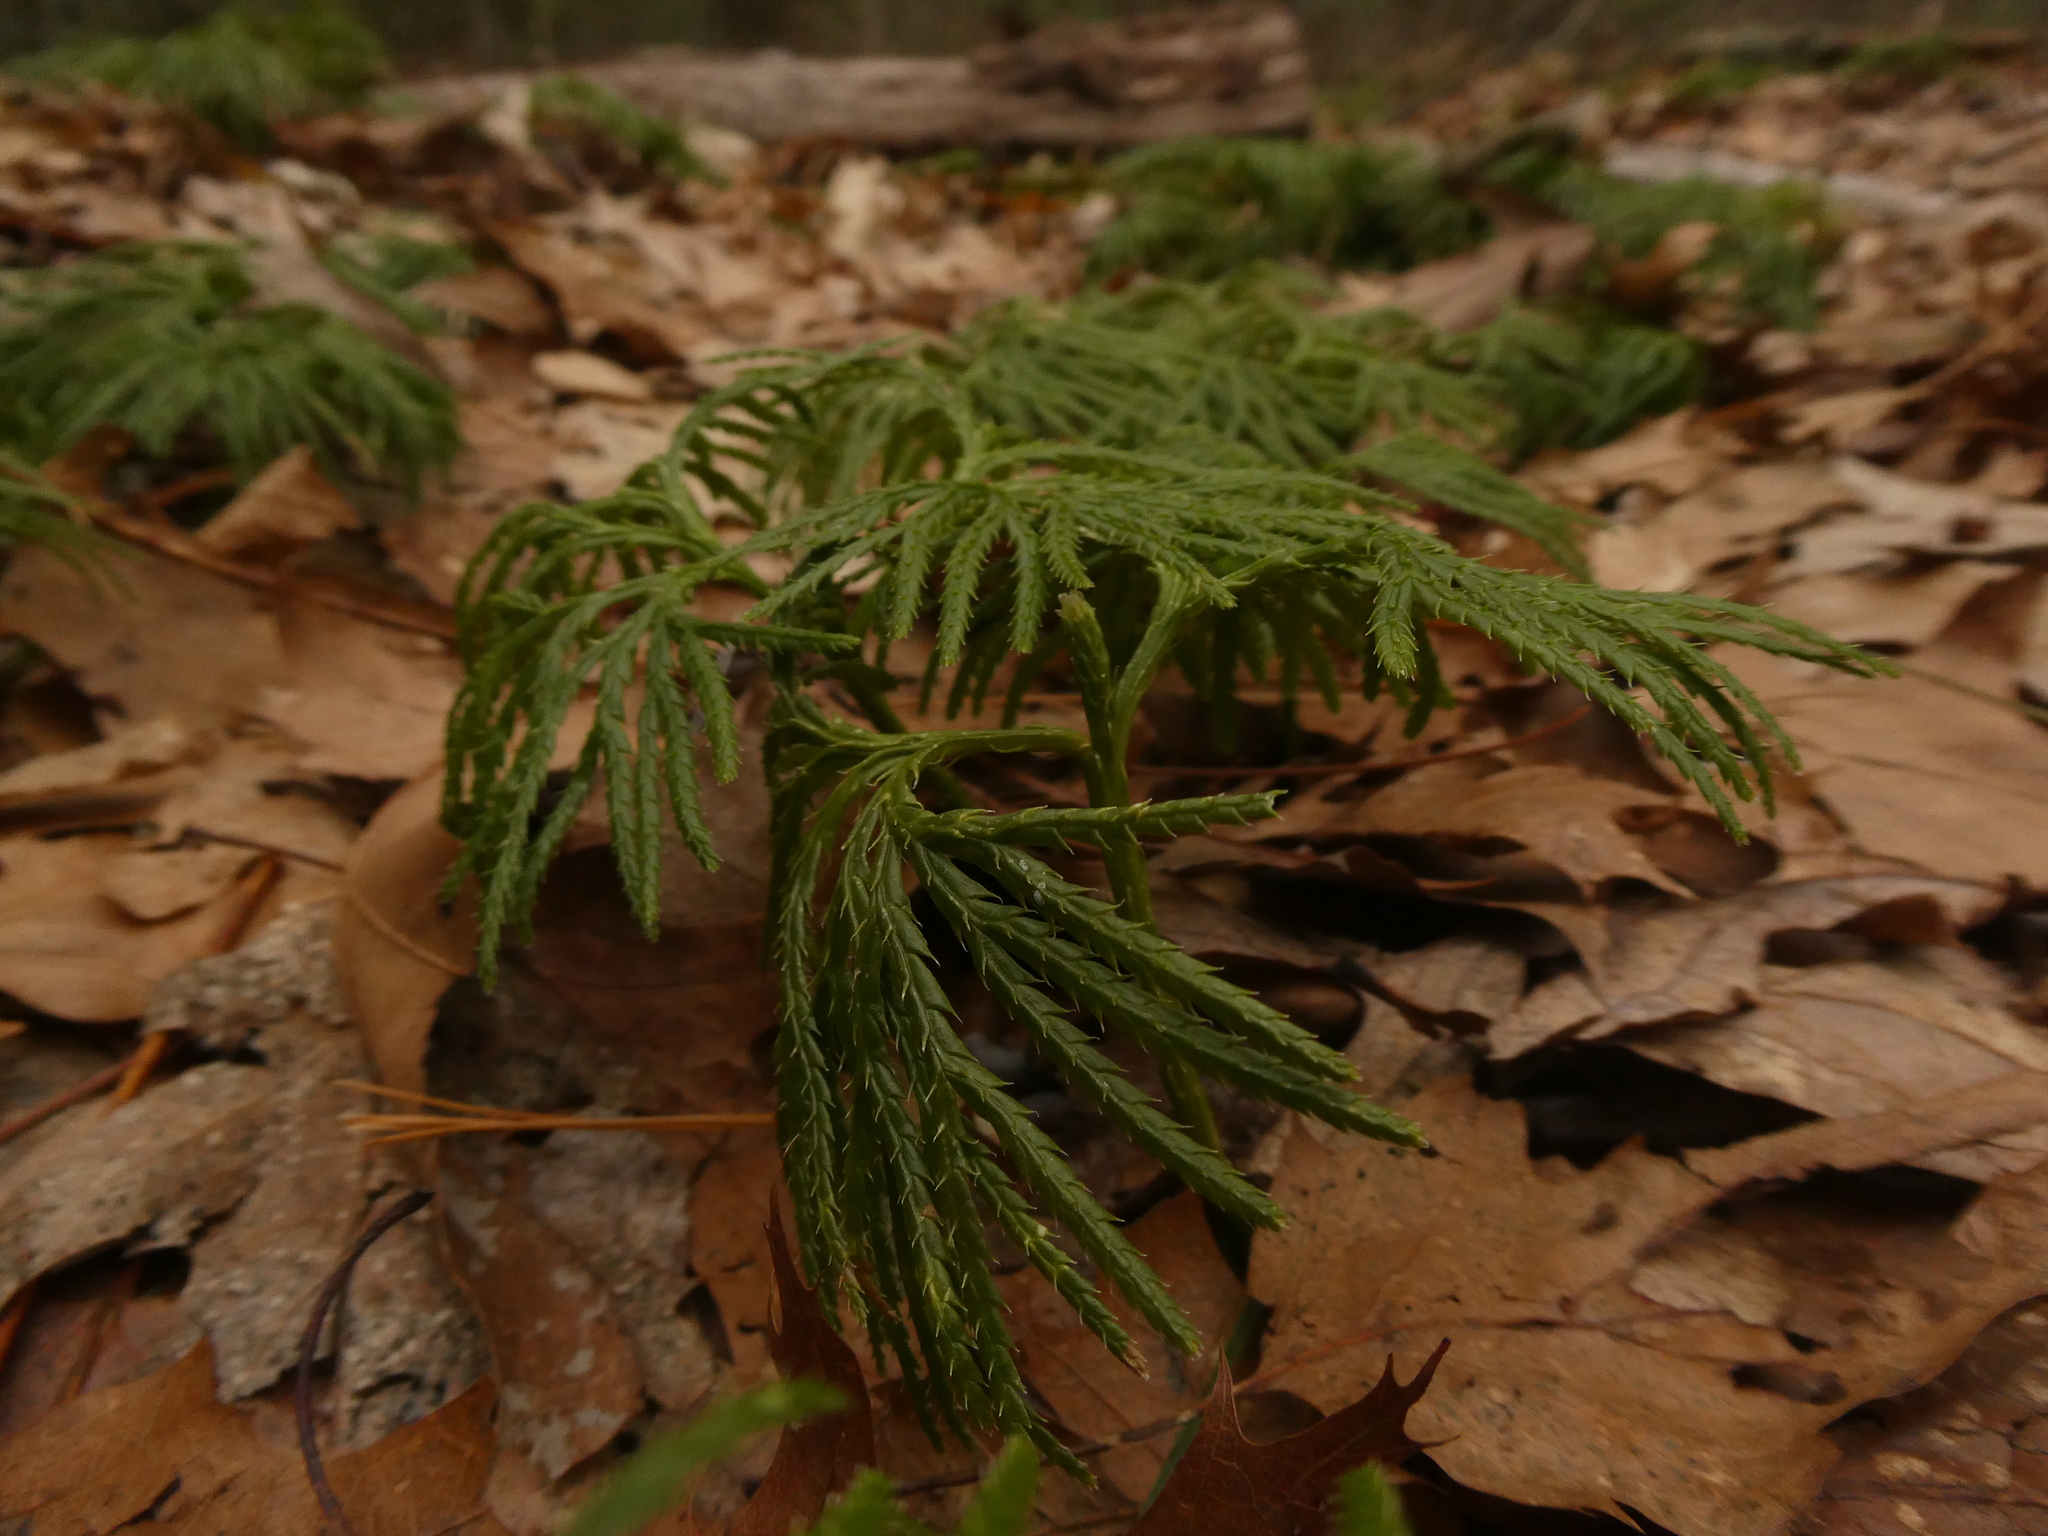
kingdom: Plantae
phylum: Tracheophyta
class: Lycopodiopsida
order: Lycopodiales
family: Lycopodiaceae
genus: Diphasiastrum
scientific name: Diphasiastrum digitatum
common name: Southern running-pine
